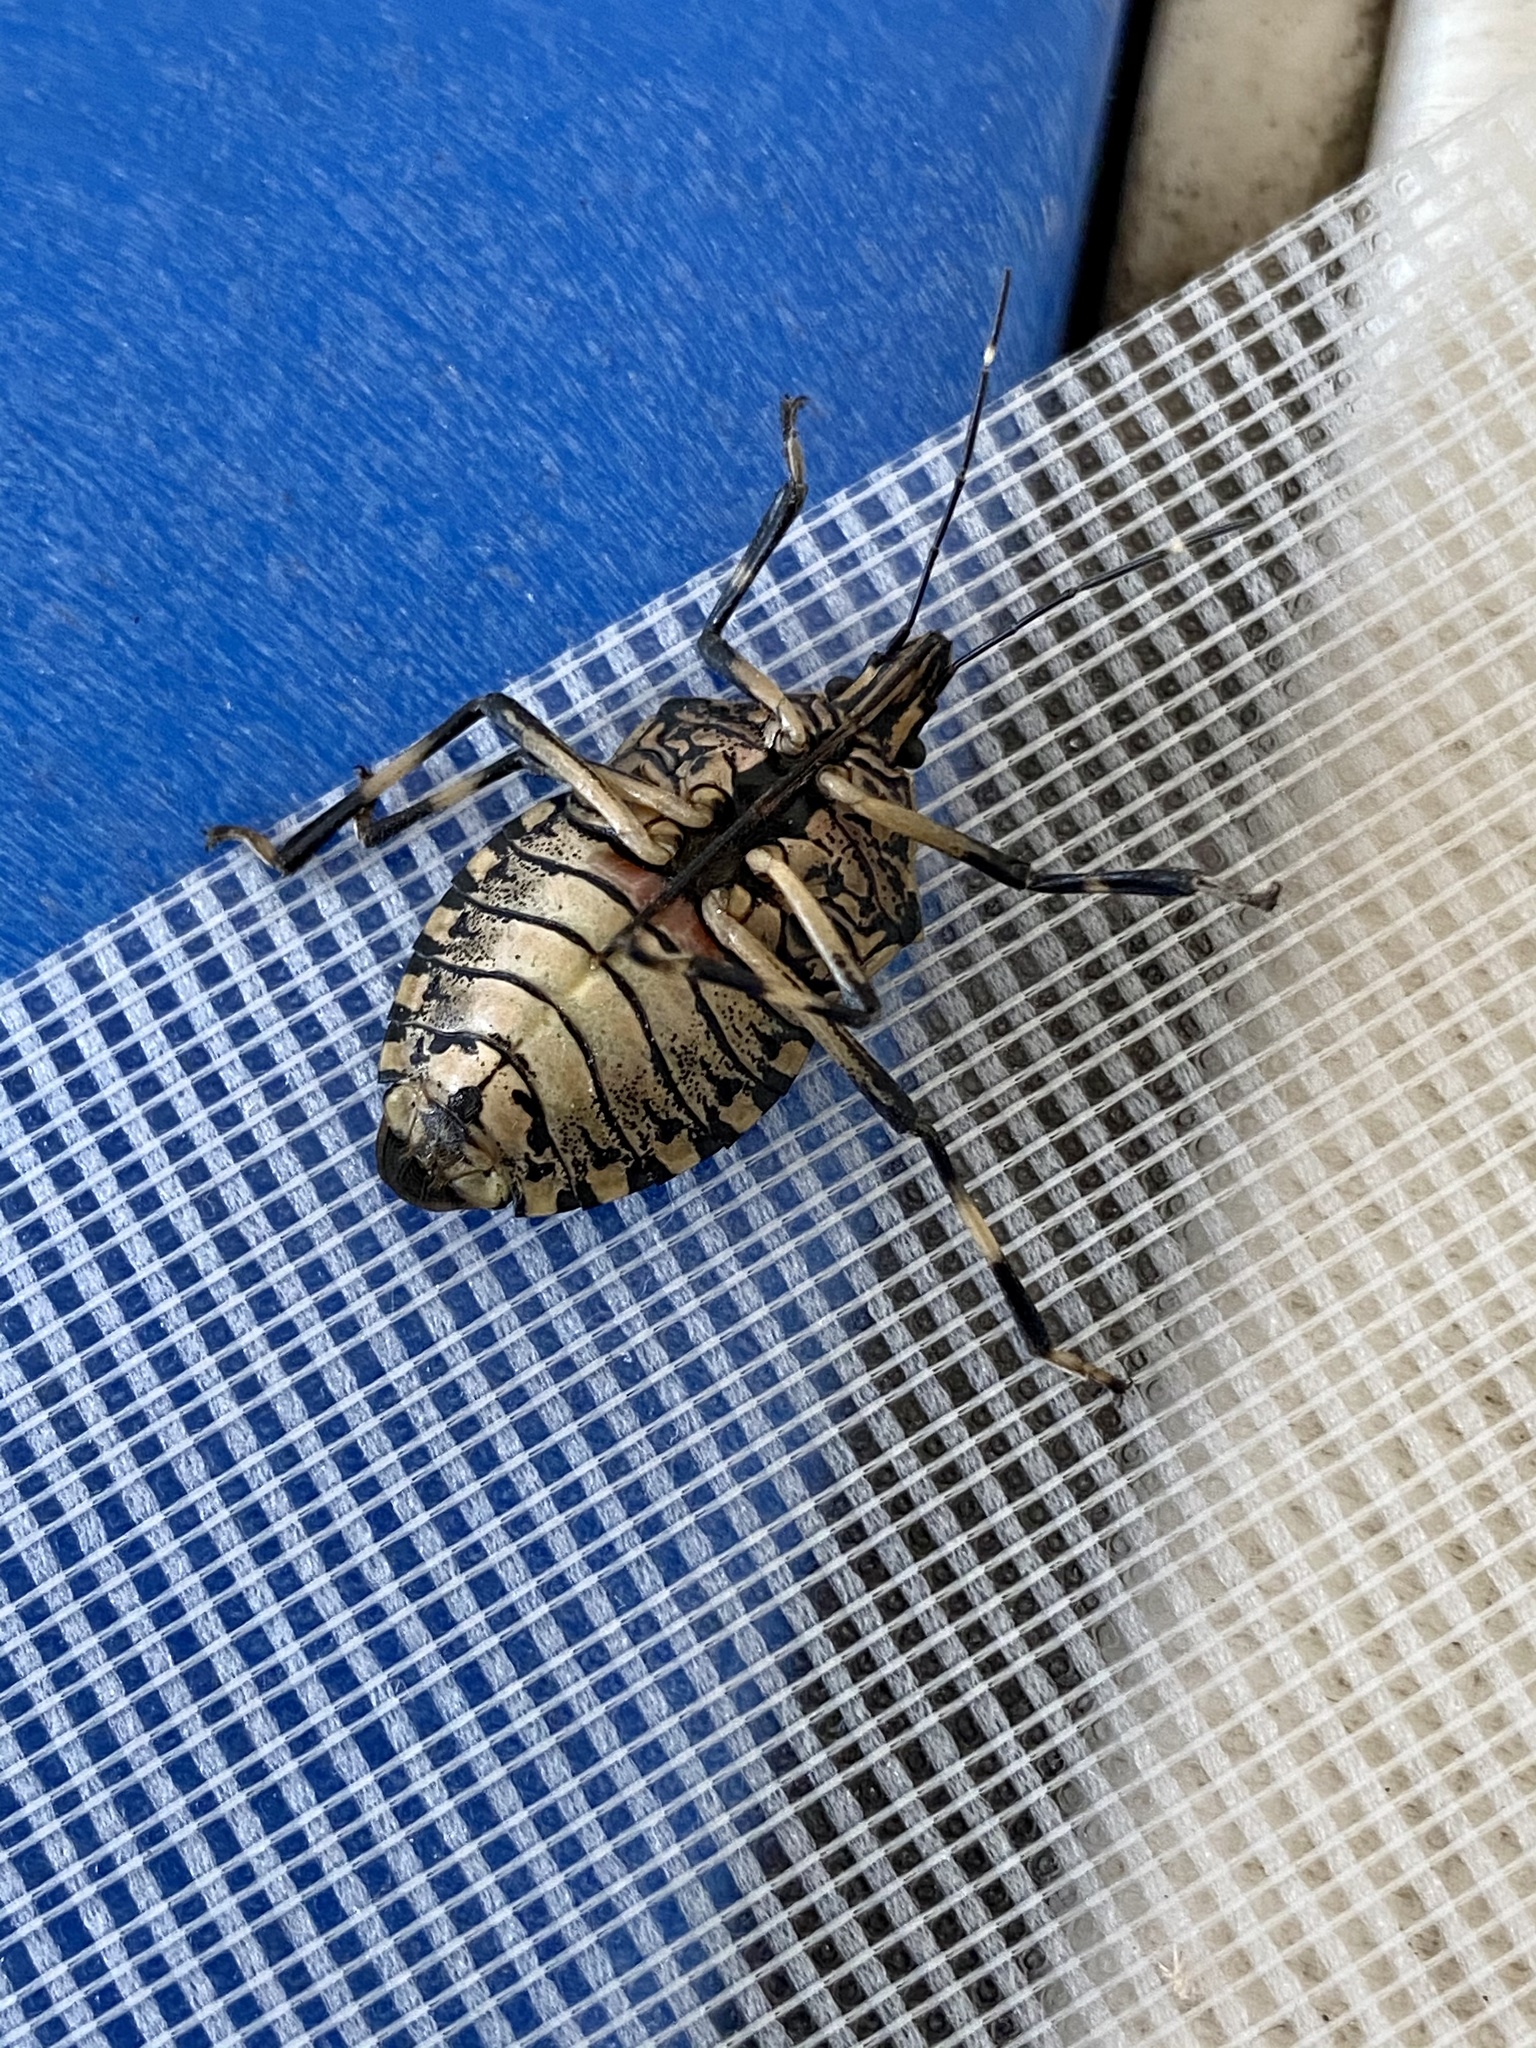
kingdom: Animalia
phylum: Arthropoda
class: Insecta
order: Hemiptera
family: Pentatomidae
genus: Erthesina
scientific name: Erthesina fullo
